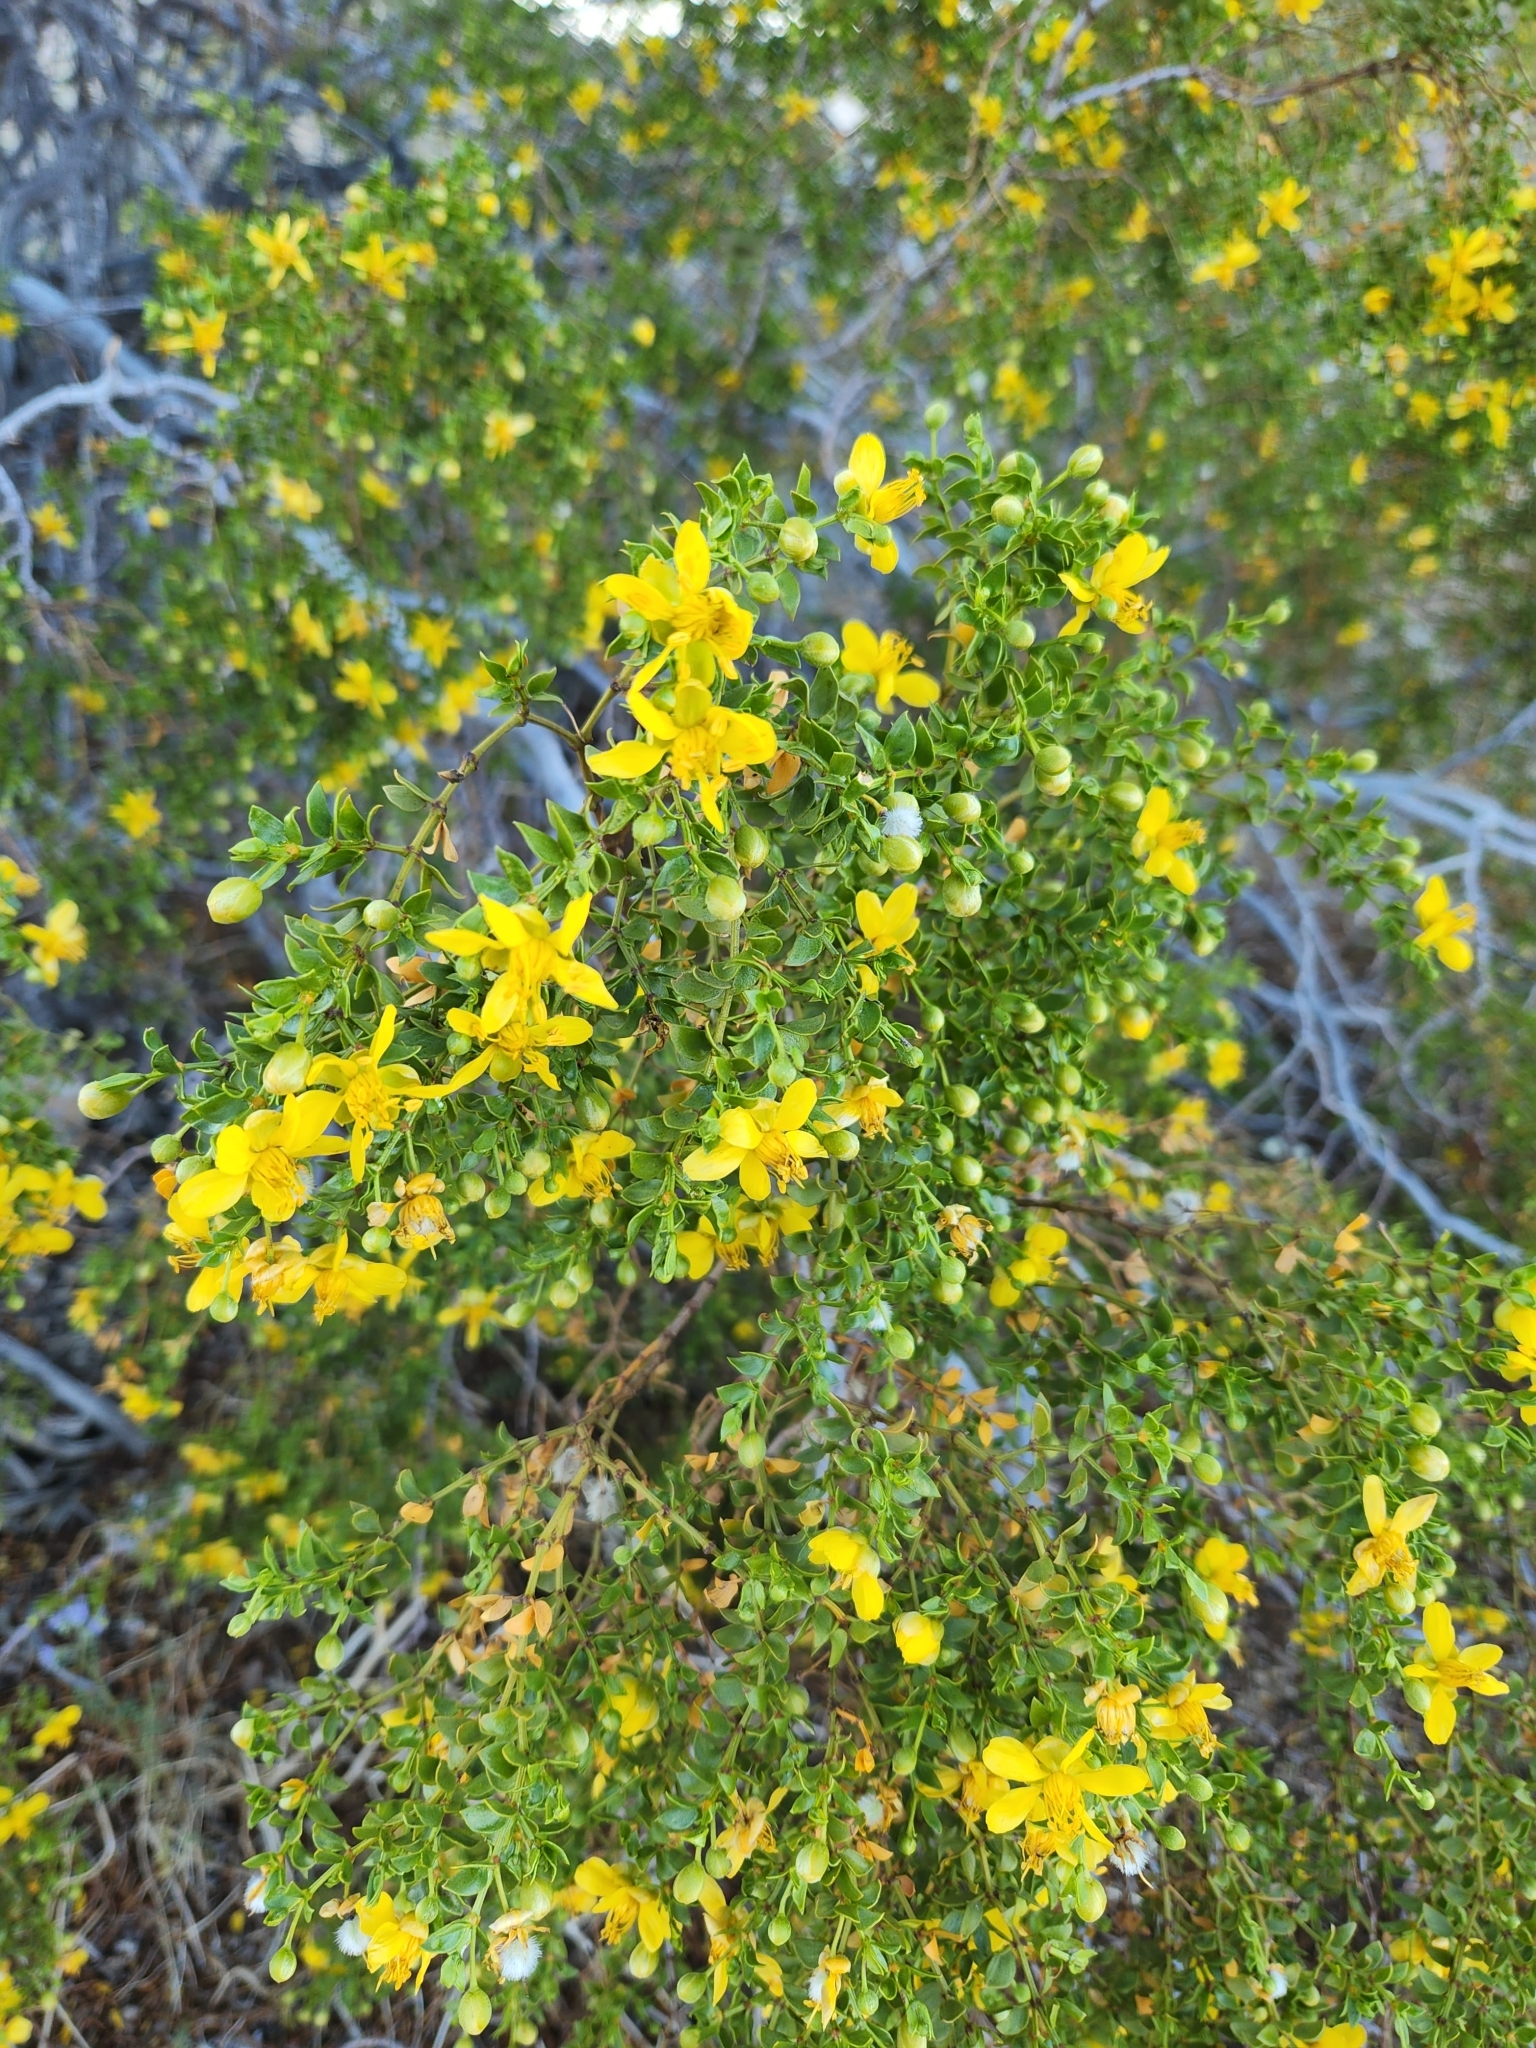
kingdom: Plantae
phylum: Tracheophyta
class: Magnoliopsida
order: Zygophyllales
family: Zygophyllaceae
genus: Larrea
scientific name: Larrea tridentata
